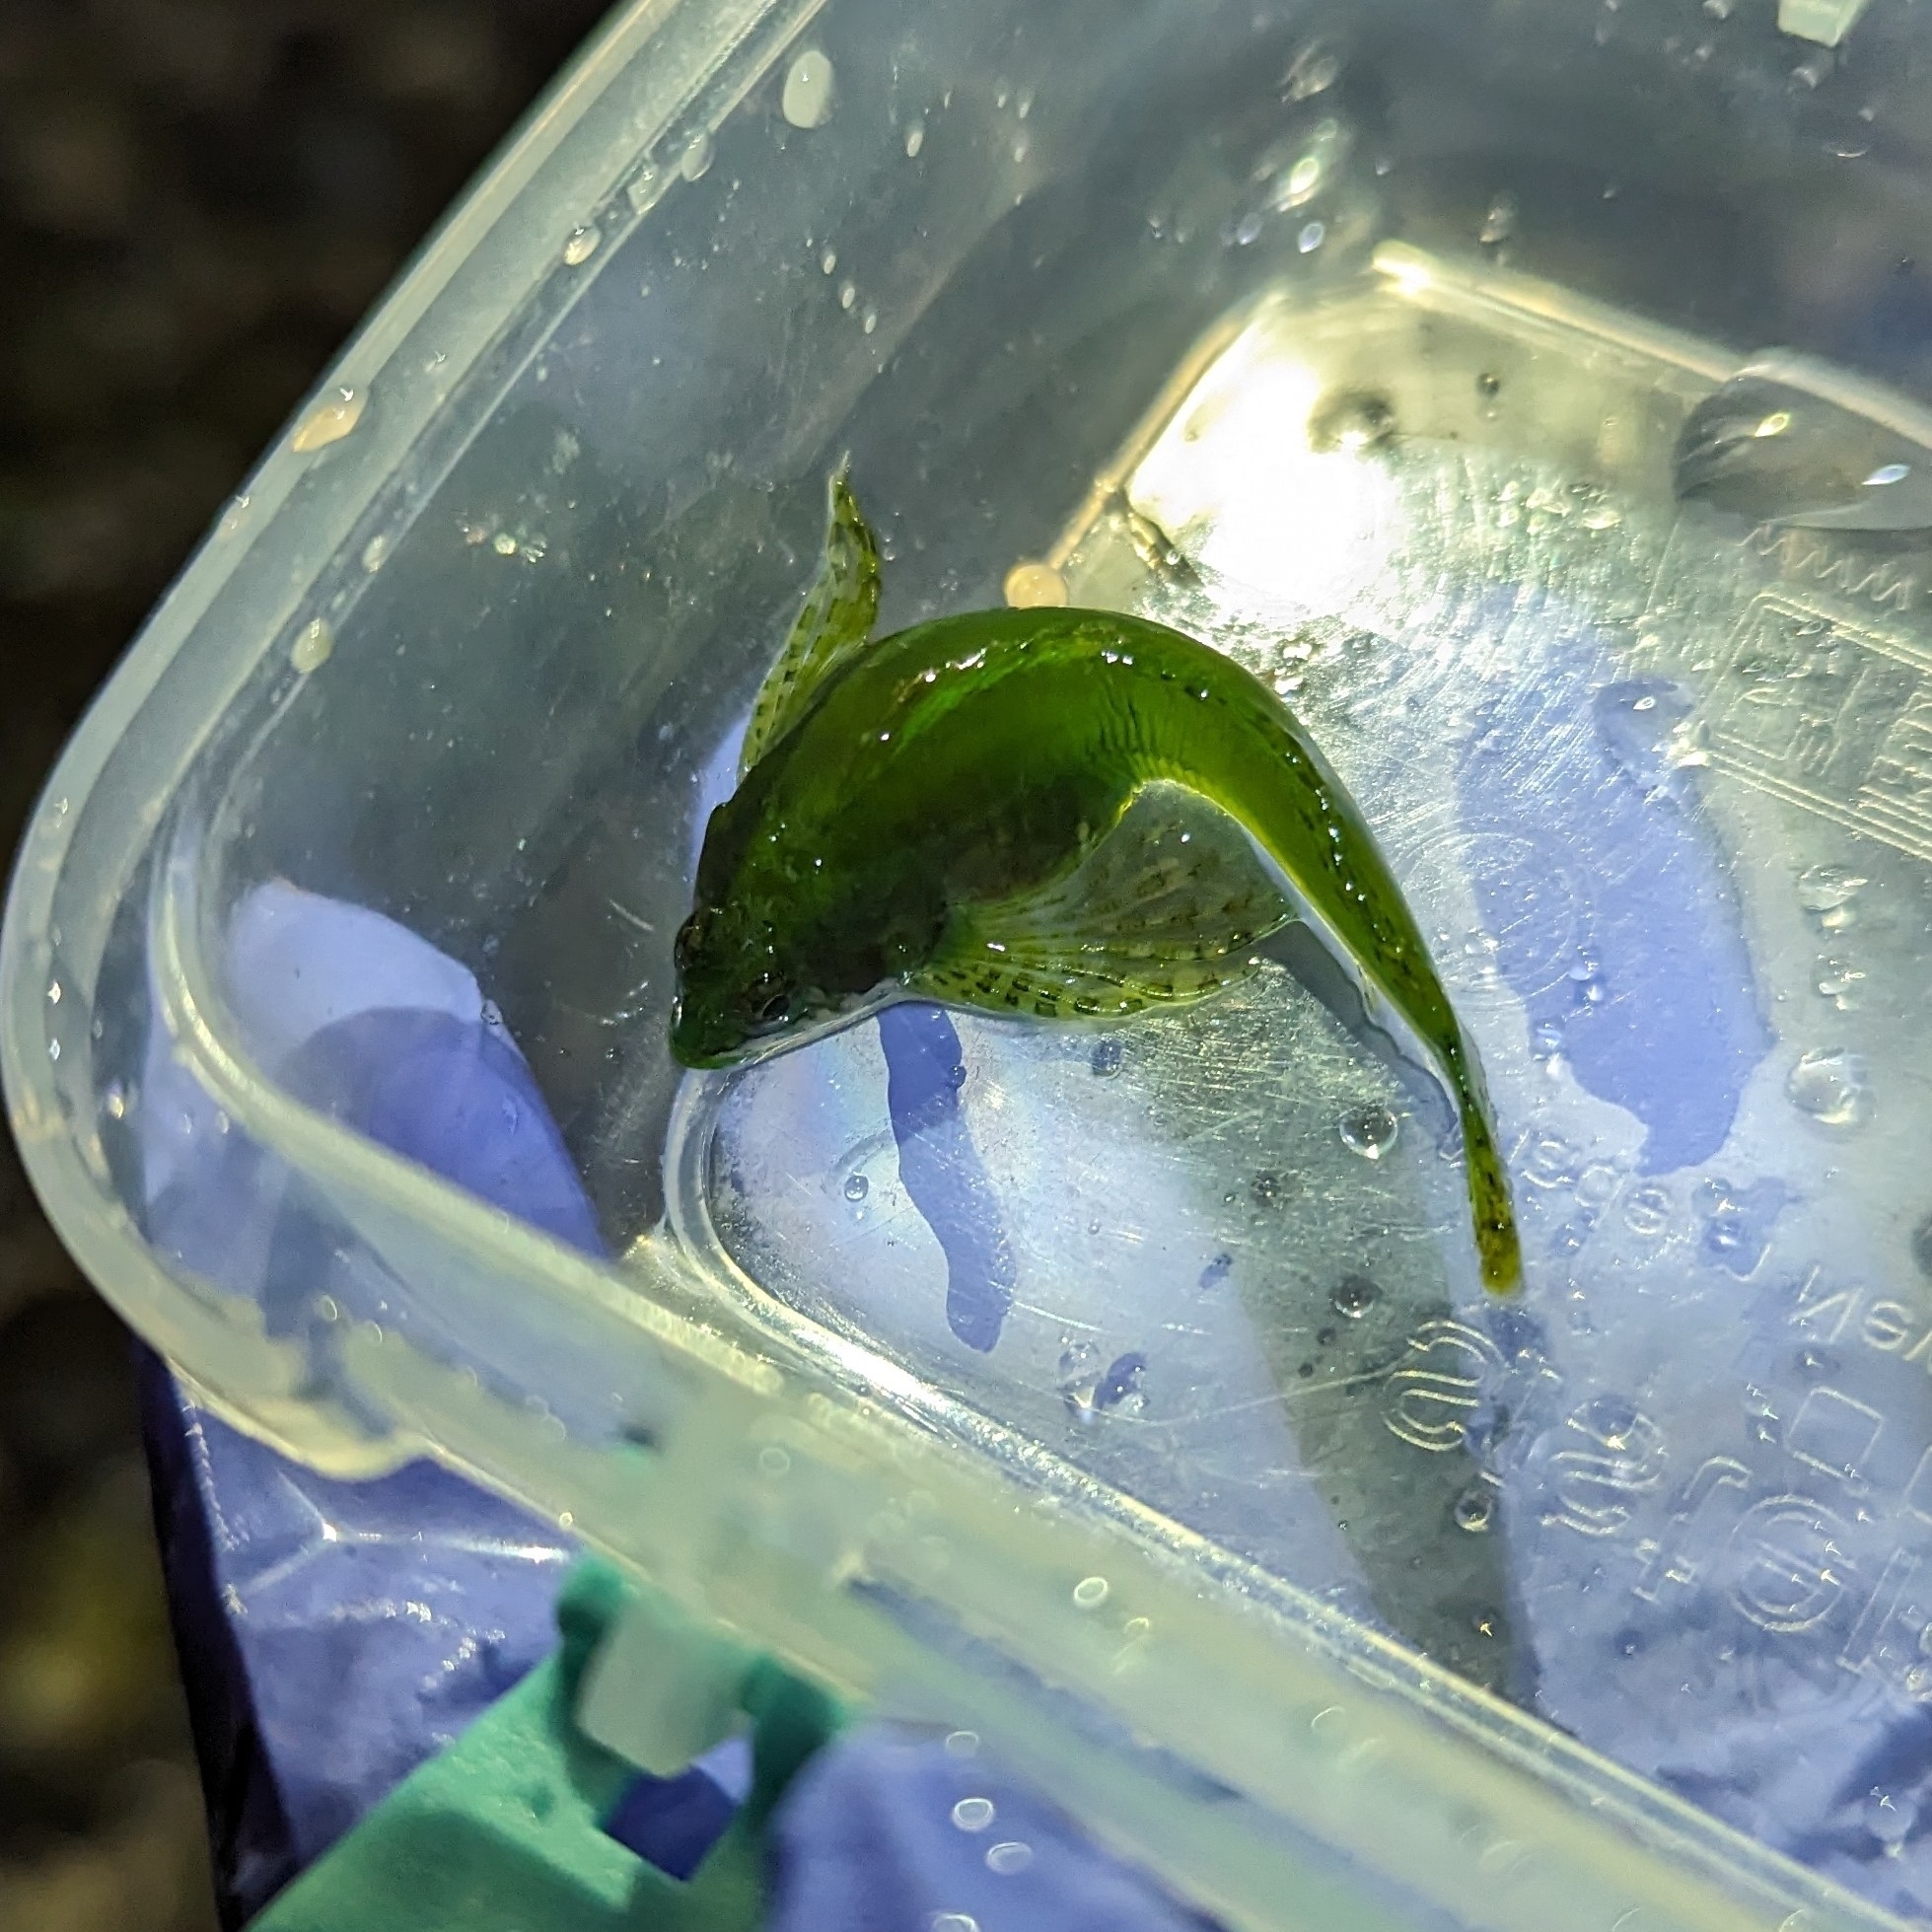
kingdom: Animalia
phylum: Chordata
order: Scorpaeniformes
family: Cottidae
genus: Clinocottus
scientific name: Clinocottus acuticeps
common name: Sharpnose sculpin
